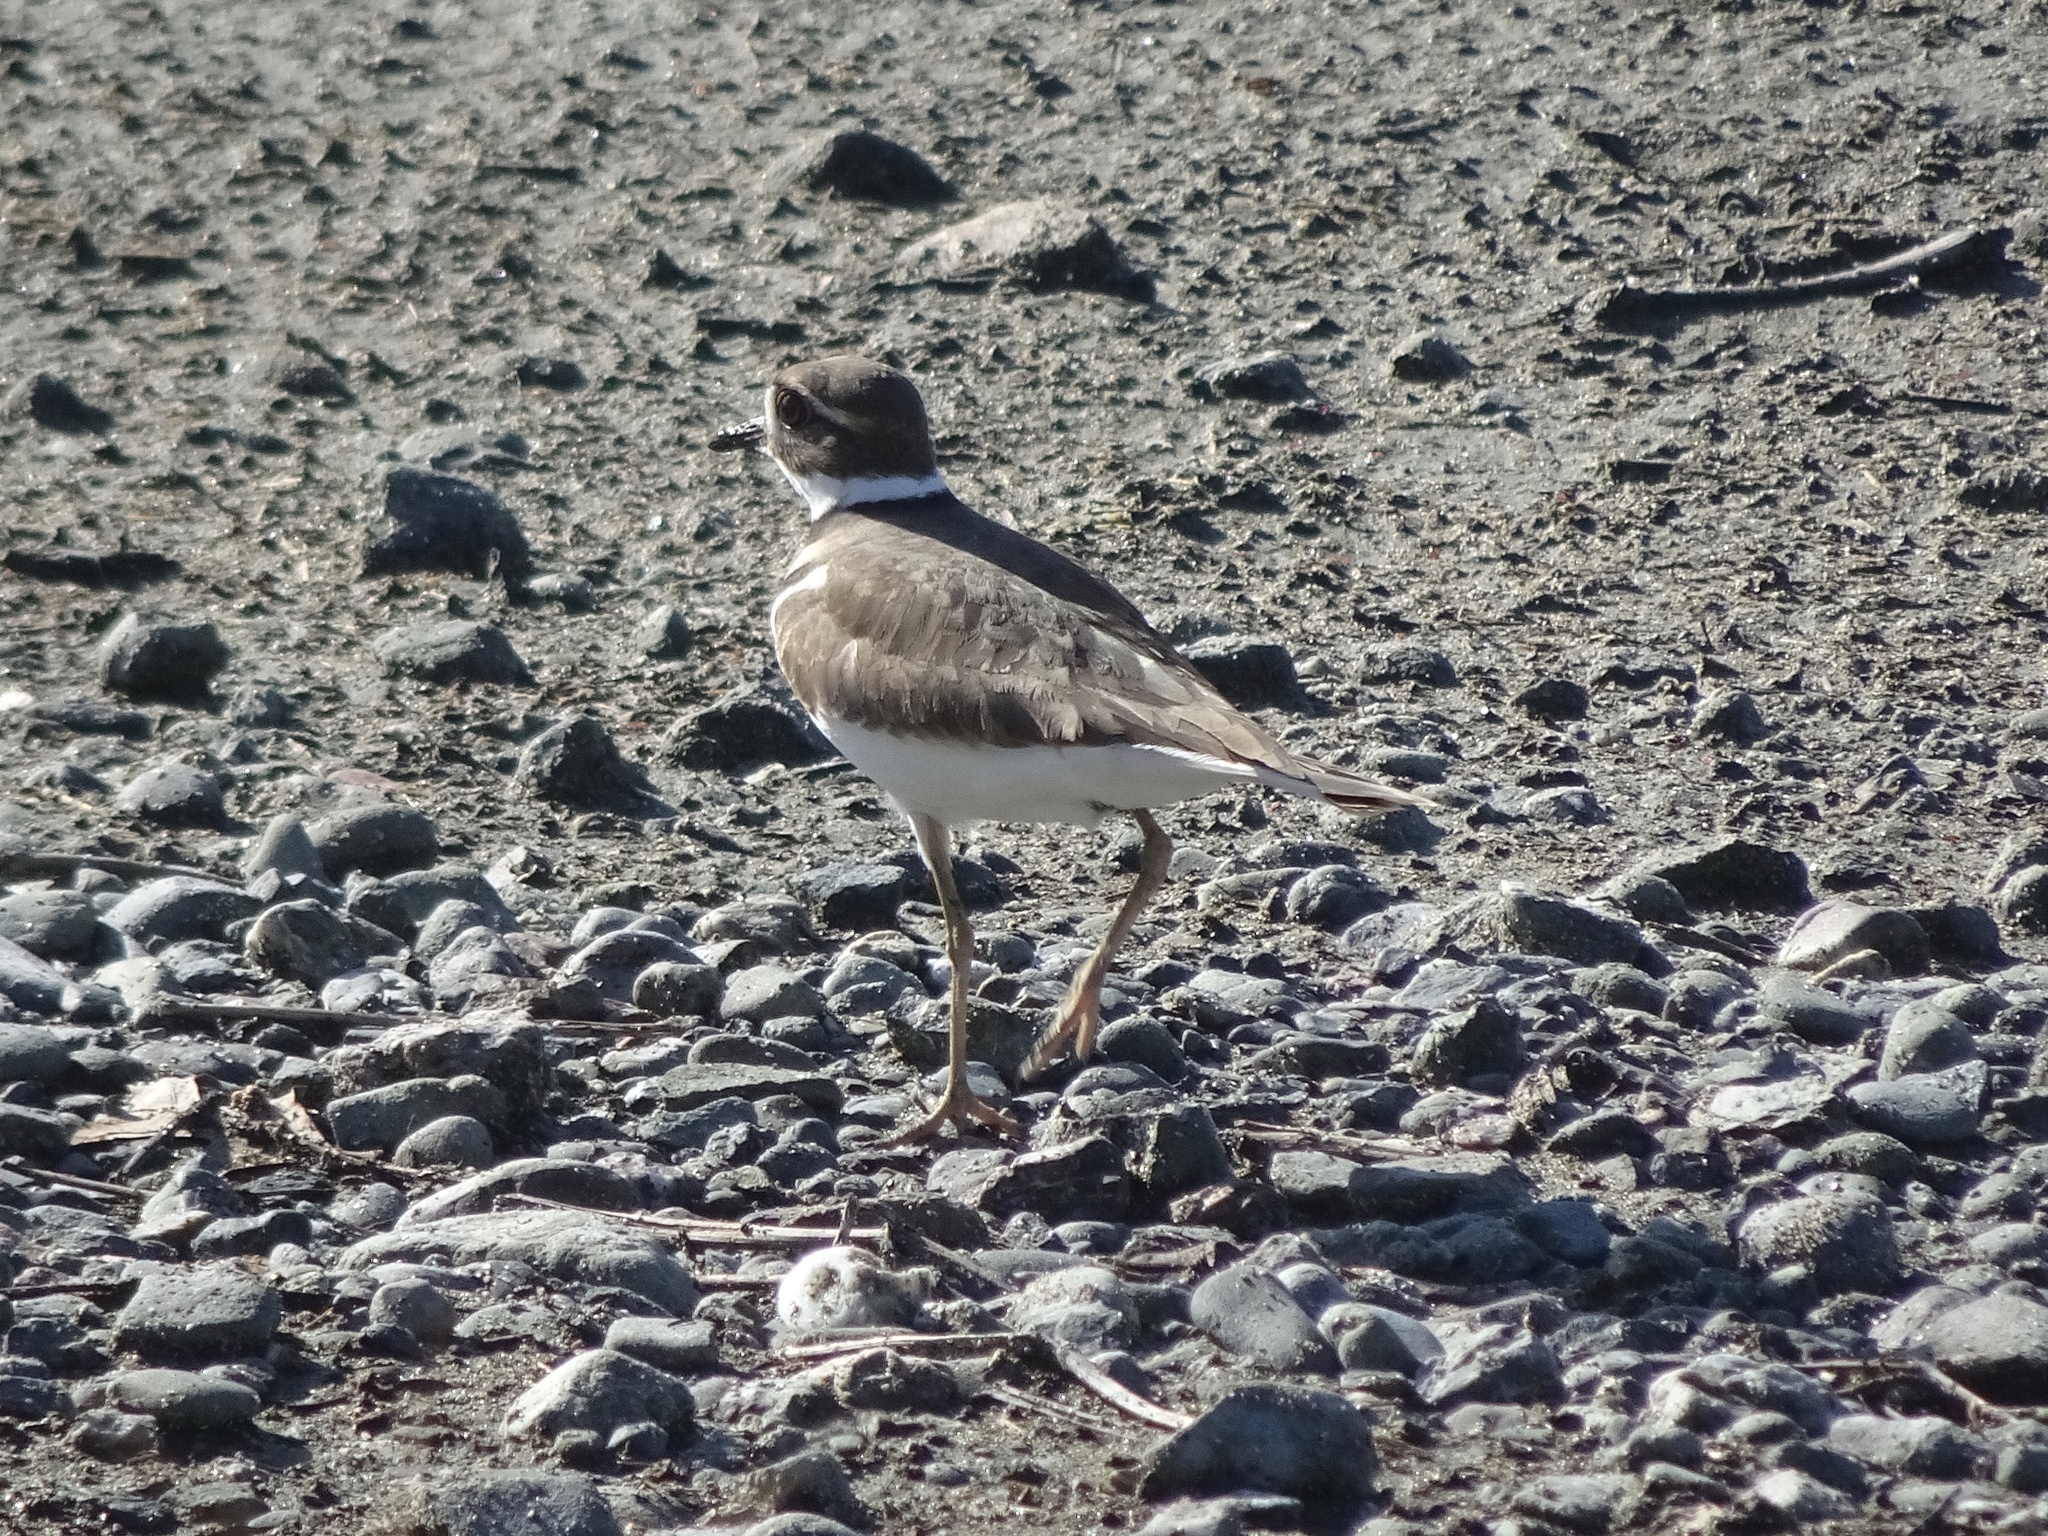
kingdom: Animalia
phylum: Chordata
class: Aves
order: Charadriiformes
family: Charadriidae
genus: Charadrius
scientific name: Charadrius vociferus
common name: Killdeer
